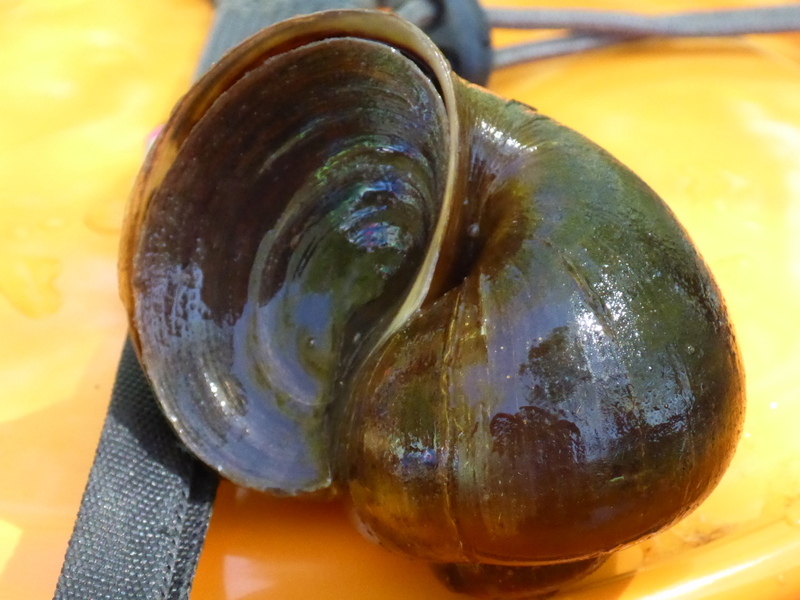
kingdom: Animalia
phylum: Mollusca
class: Gastropoda
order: Architaenioglossa
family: Ampullariidae
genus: Pomacea
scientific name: Pomacea paludosa
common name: Florida applesnail
